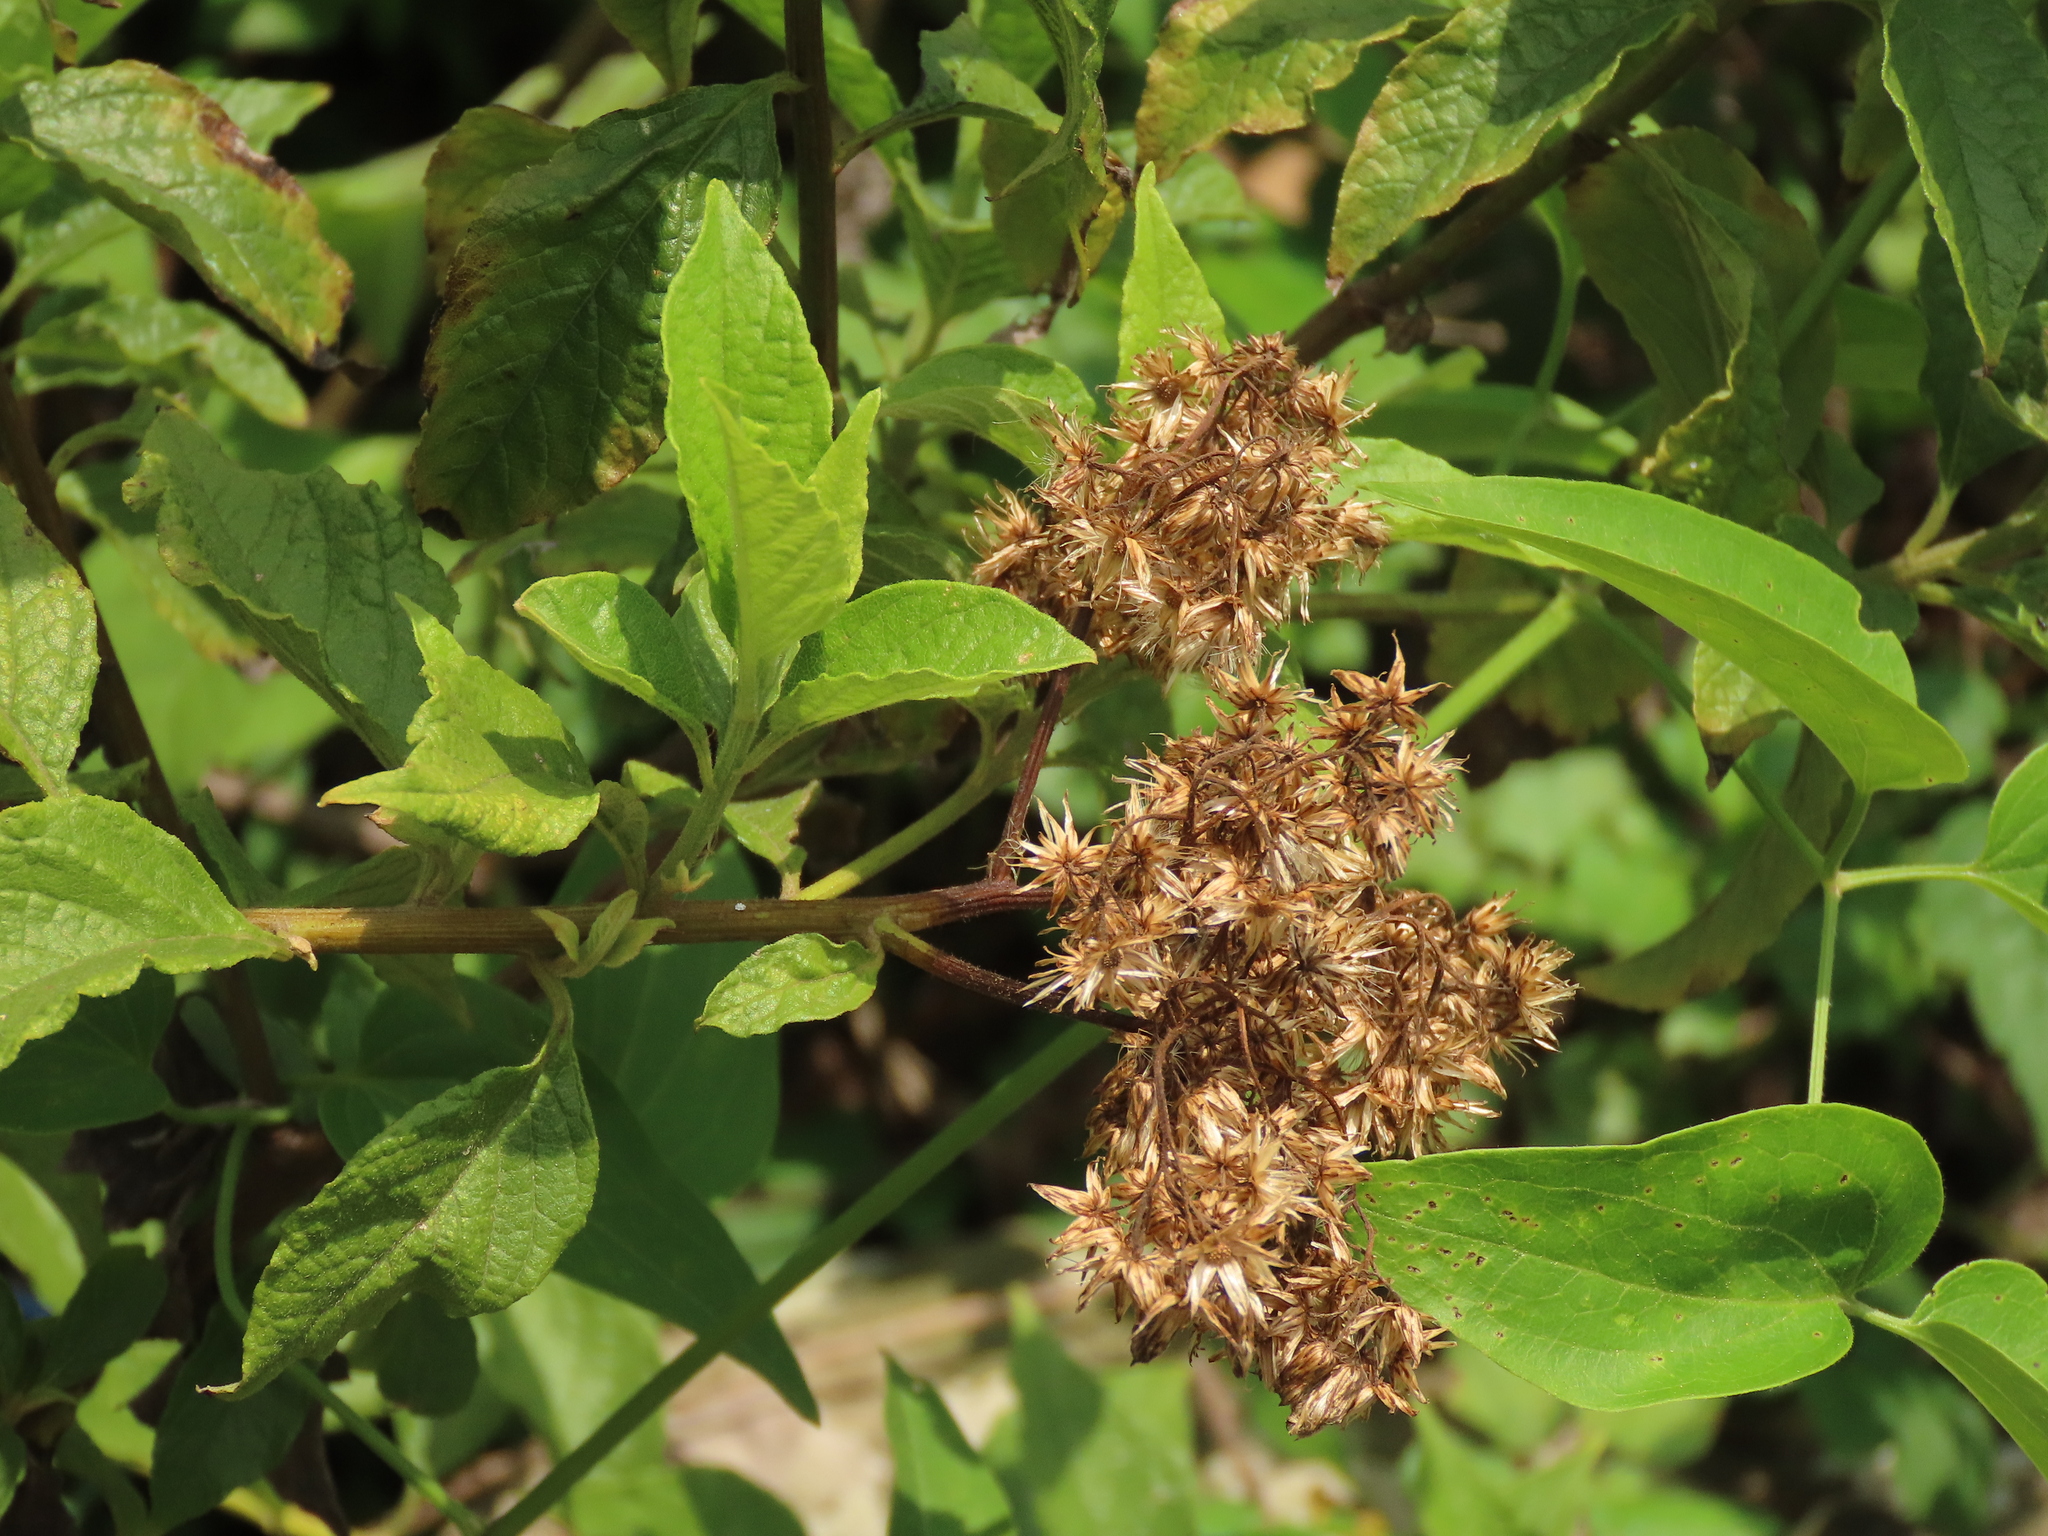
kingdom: Plantae
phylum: Tracheophyta
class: Magnoliopsida
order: Asterales
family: Asteraceae
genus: Microglossa
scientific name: Microglossa pyrifolia
